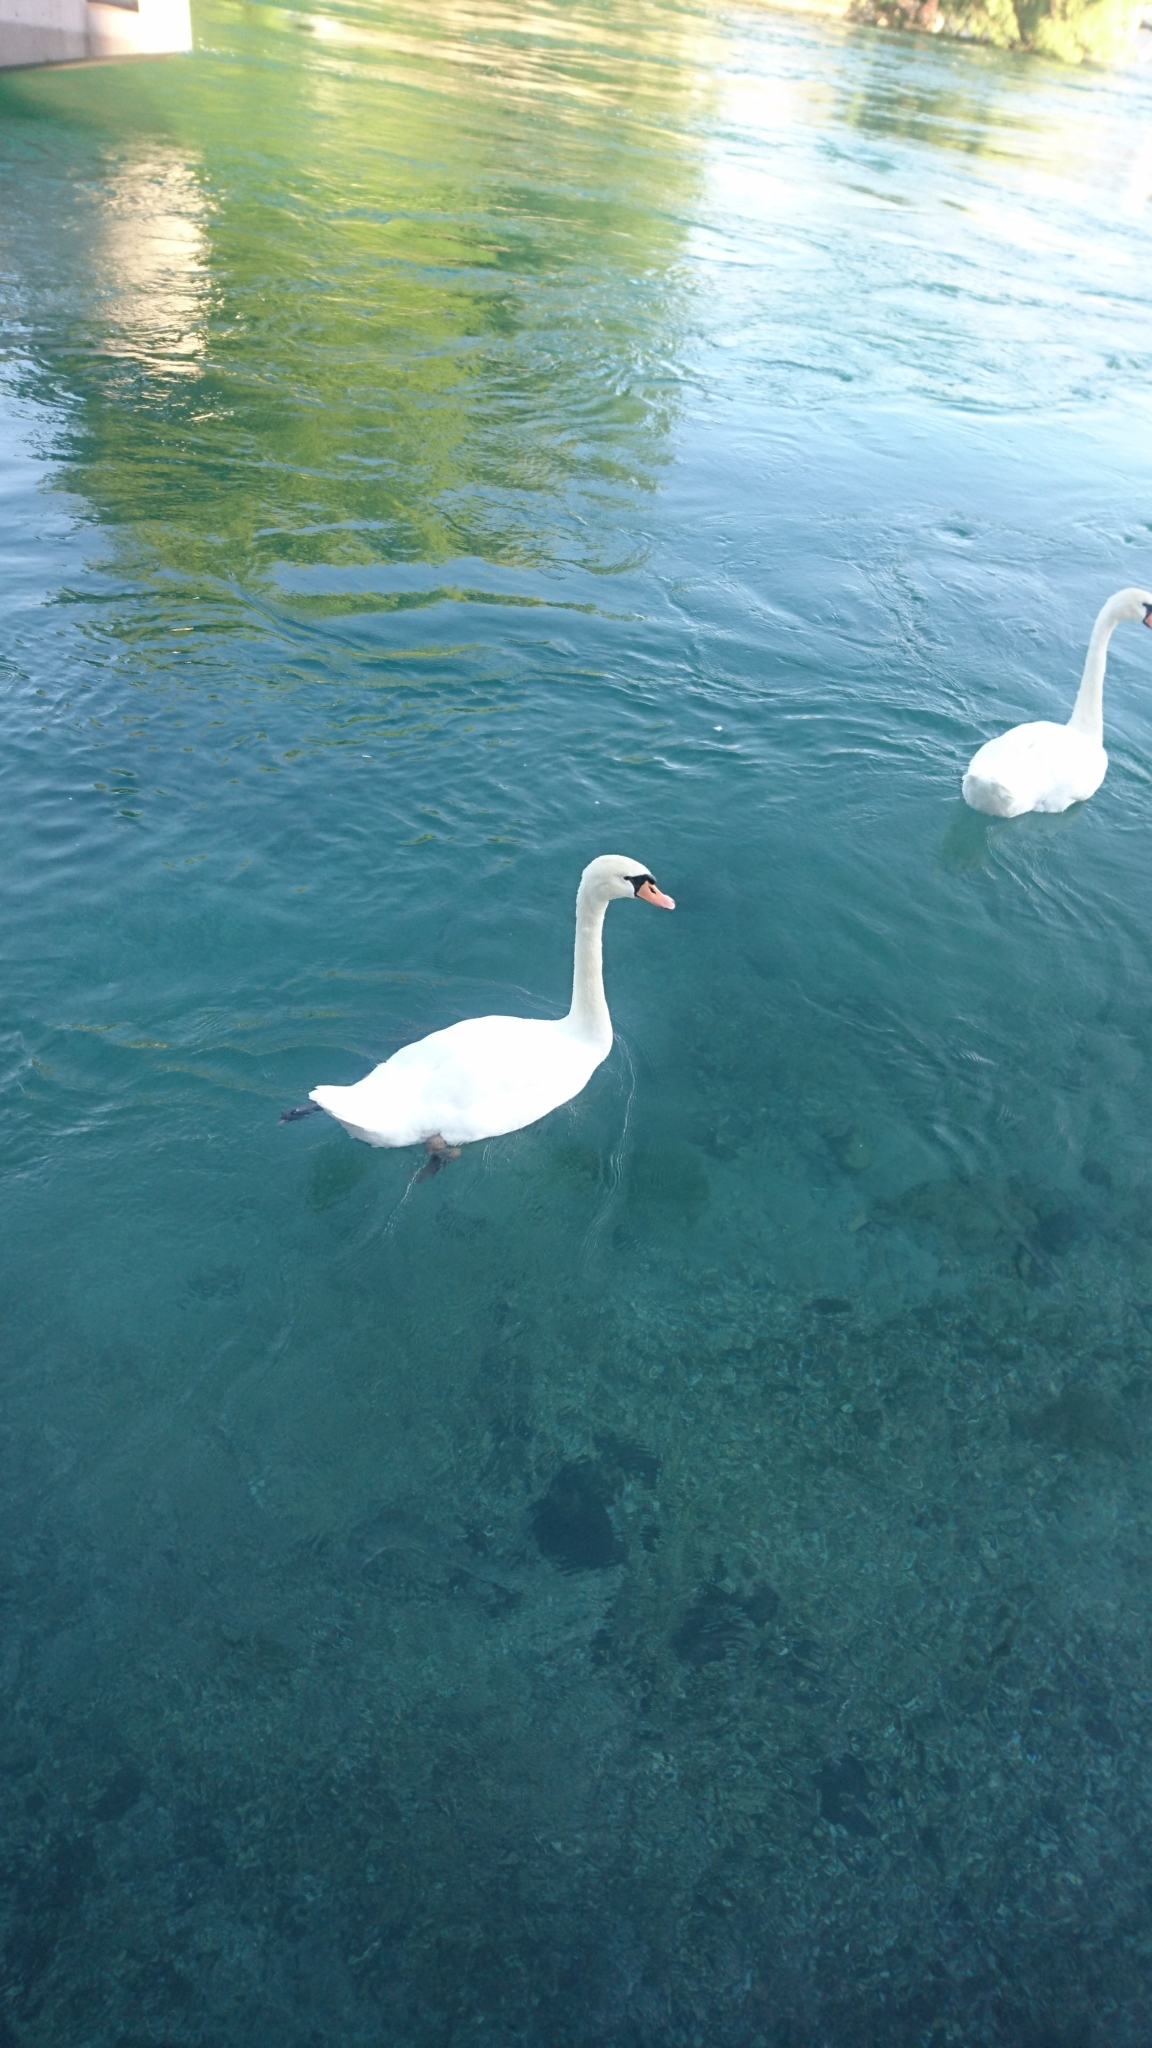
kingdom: Animalia
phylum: Chordata
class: Aves
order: Anseriformes
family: Anatidae
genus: Cygnus
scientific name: Cygnus olor
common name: Mute swan
